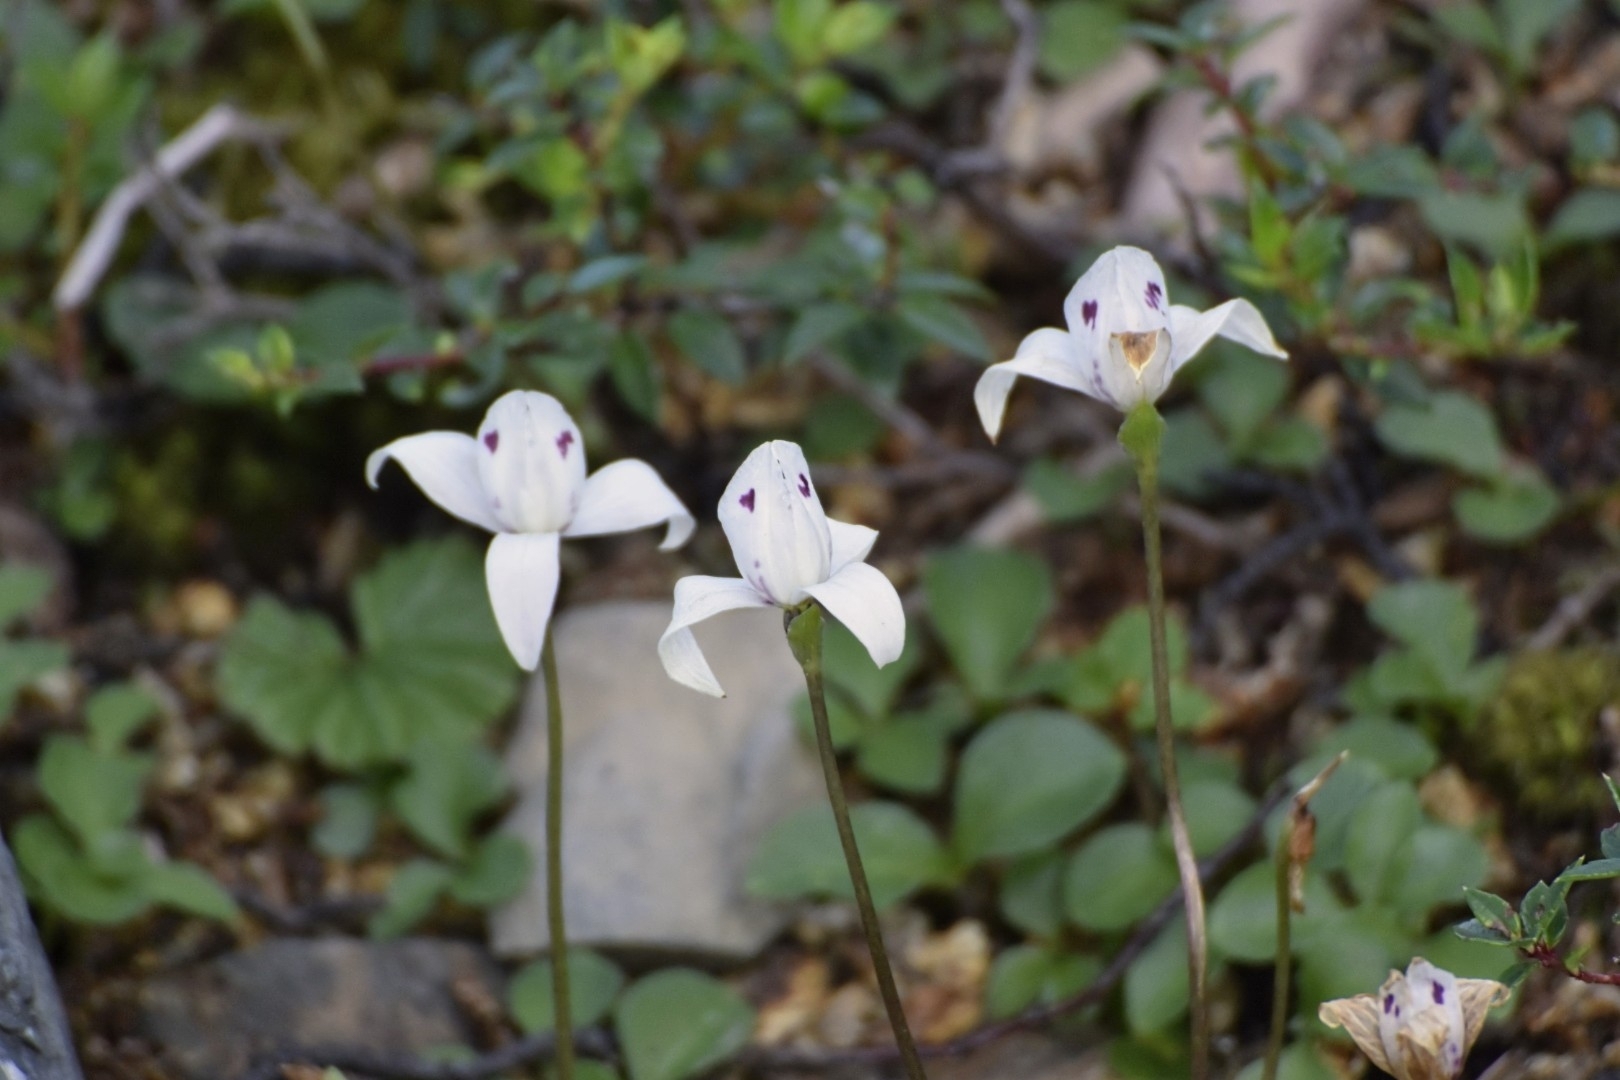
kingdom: Plantae
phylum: Tracheophyta
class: Liliopsida
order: Asparagales
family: Orchidaceae
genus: Codonorchis
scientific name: Codonorchis lessonii
